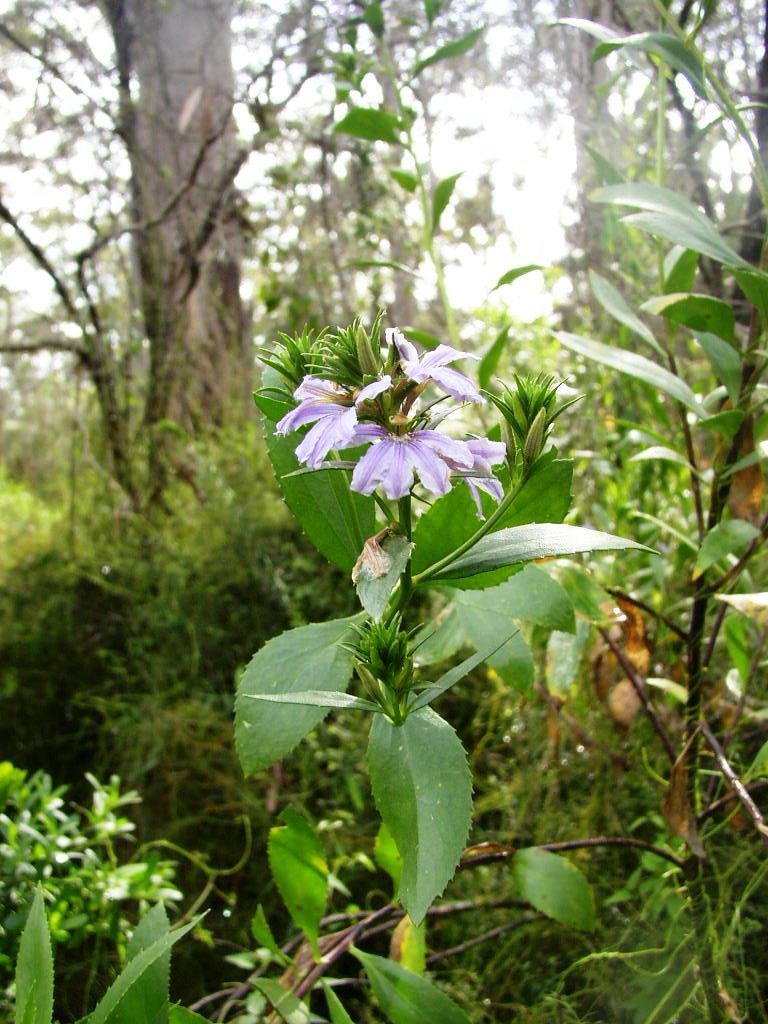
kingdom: Plantae
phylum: Tracheophyta
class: Magnoliopsida
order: Asterales
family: Goodeniaceae
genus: Scaevola
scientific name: Scaevola nitida
